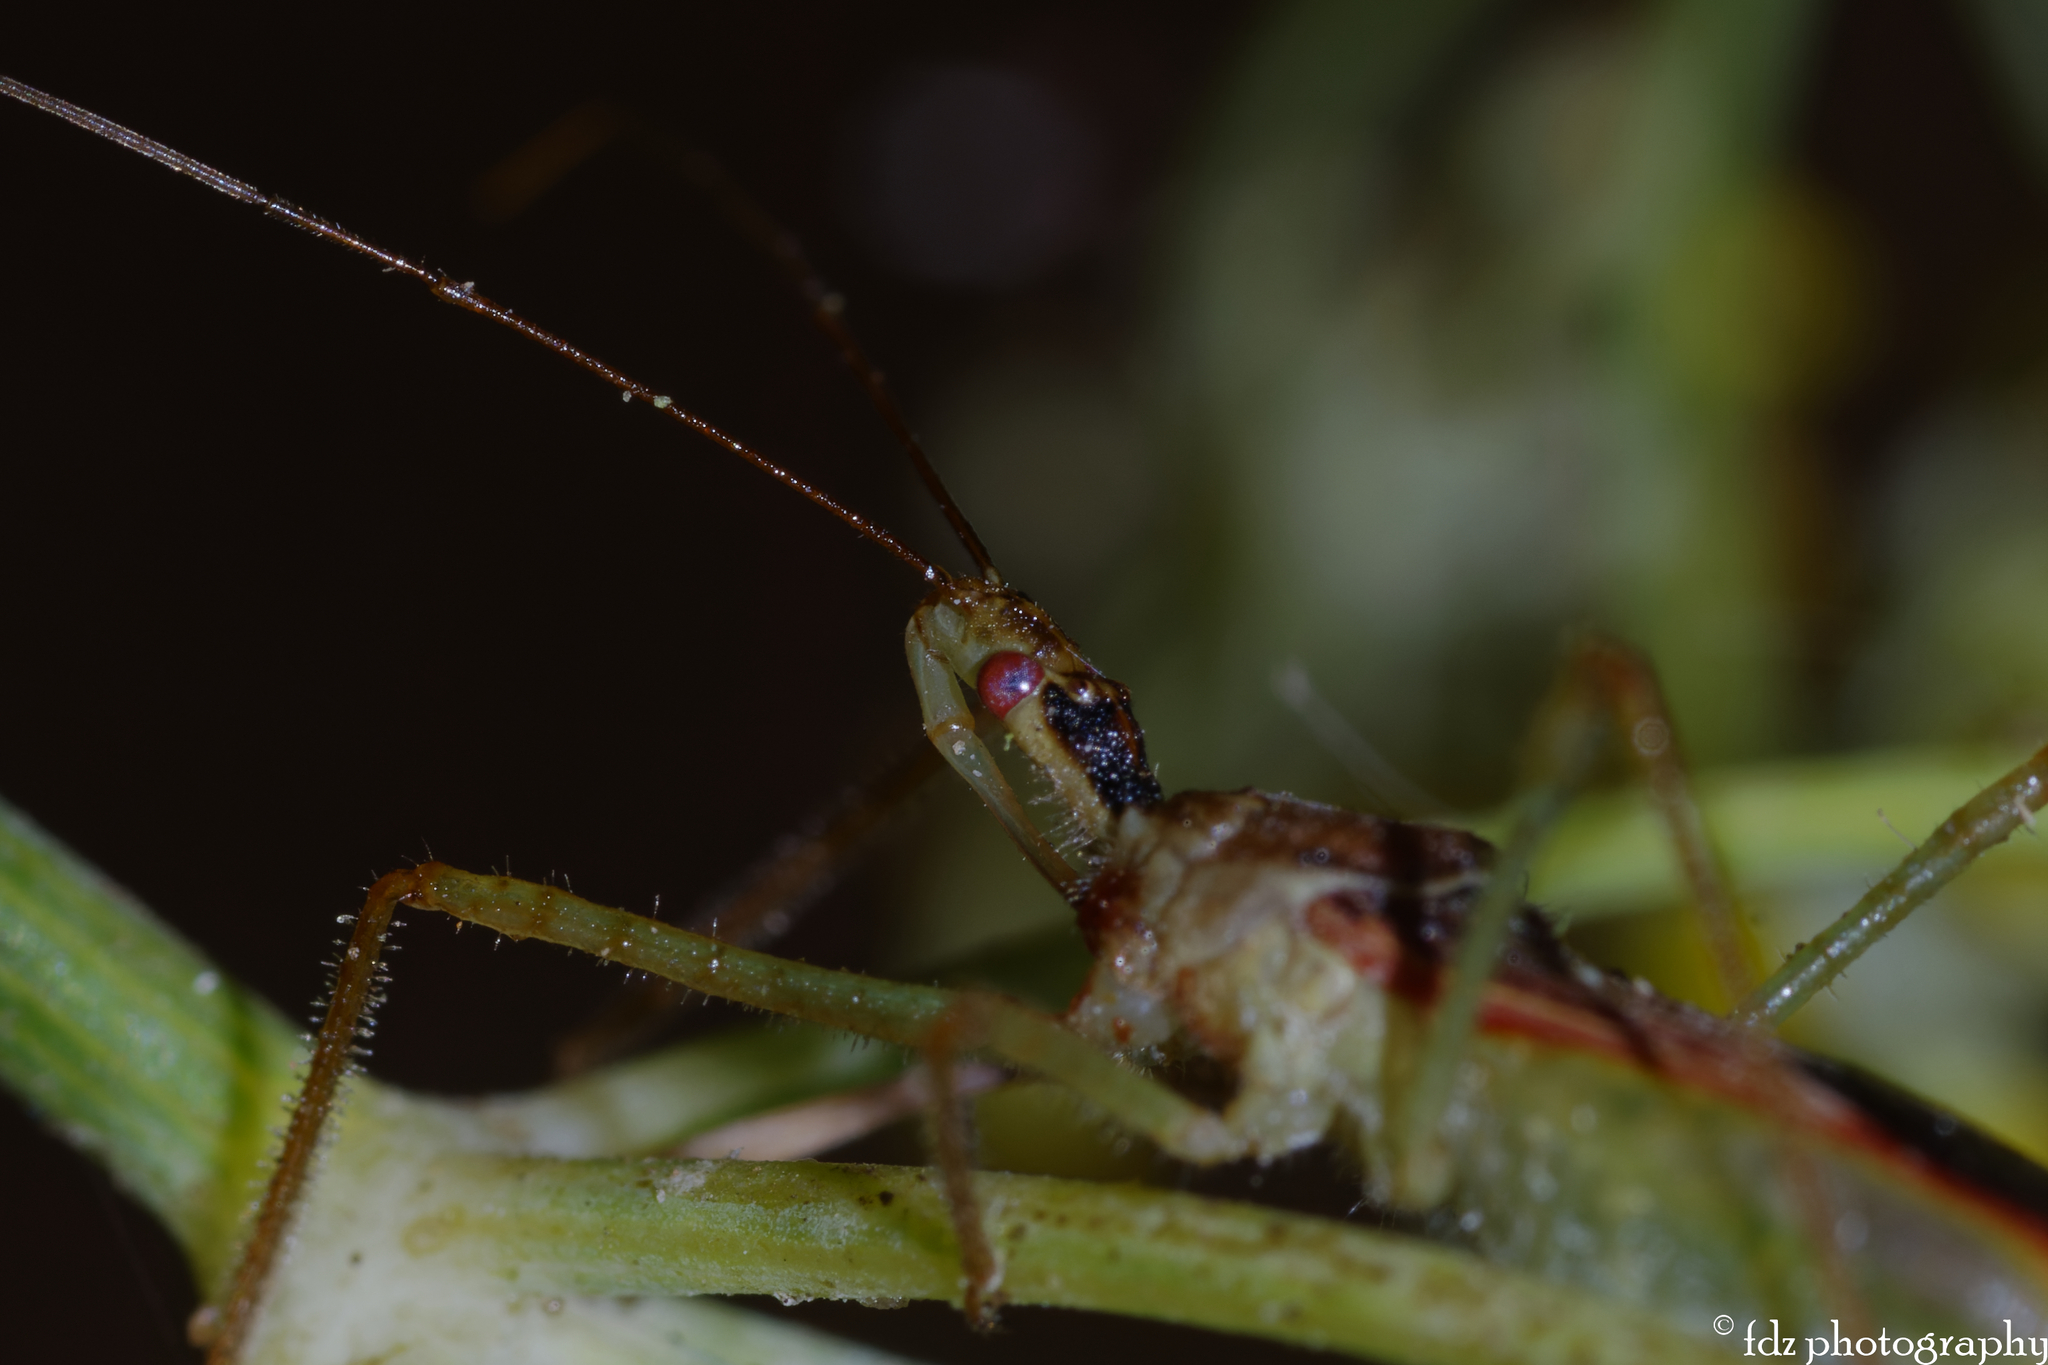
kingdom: Animalia
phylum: Arthropoda
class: Insecta
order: Hemiptera
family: Reduviidae
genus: Zelus
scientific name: Zelus renardii
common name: Assassin bug
